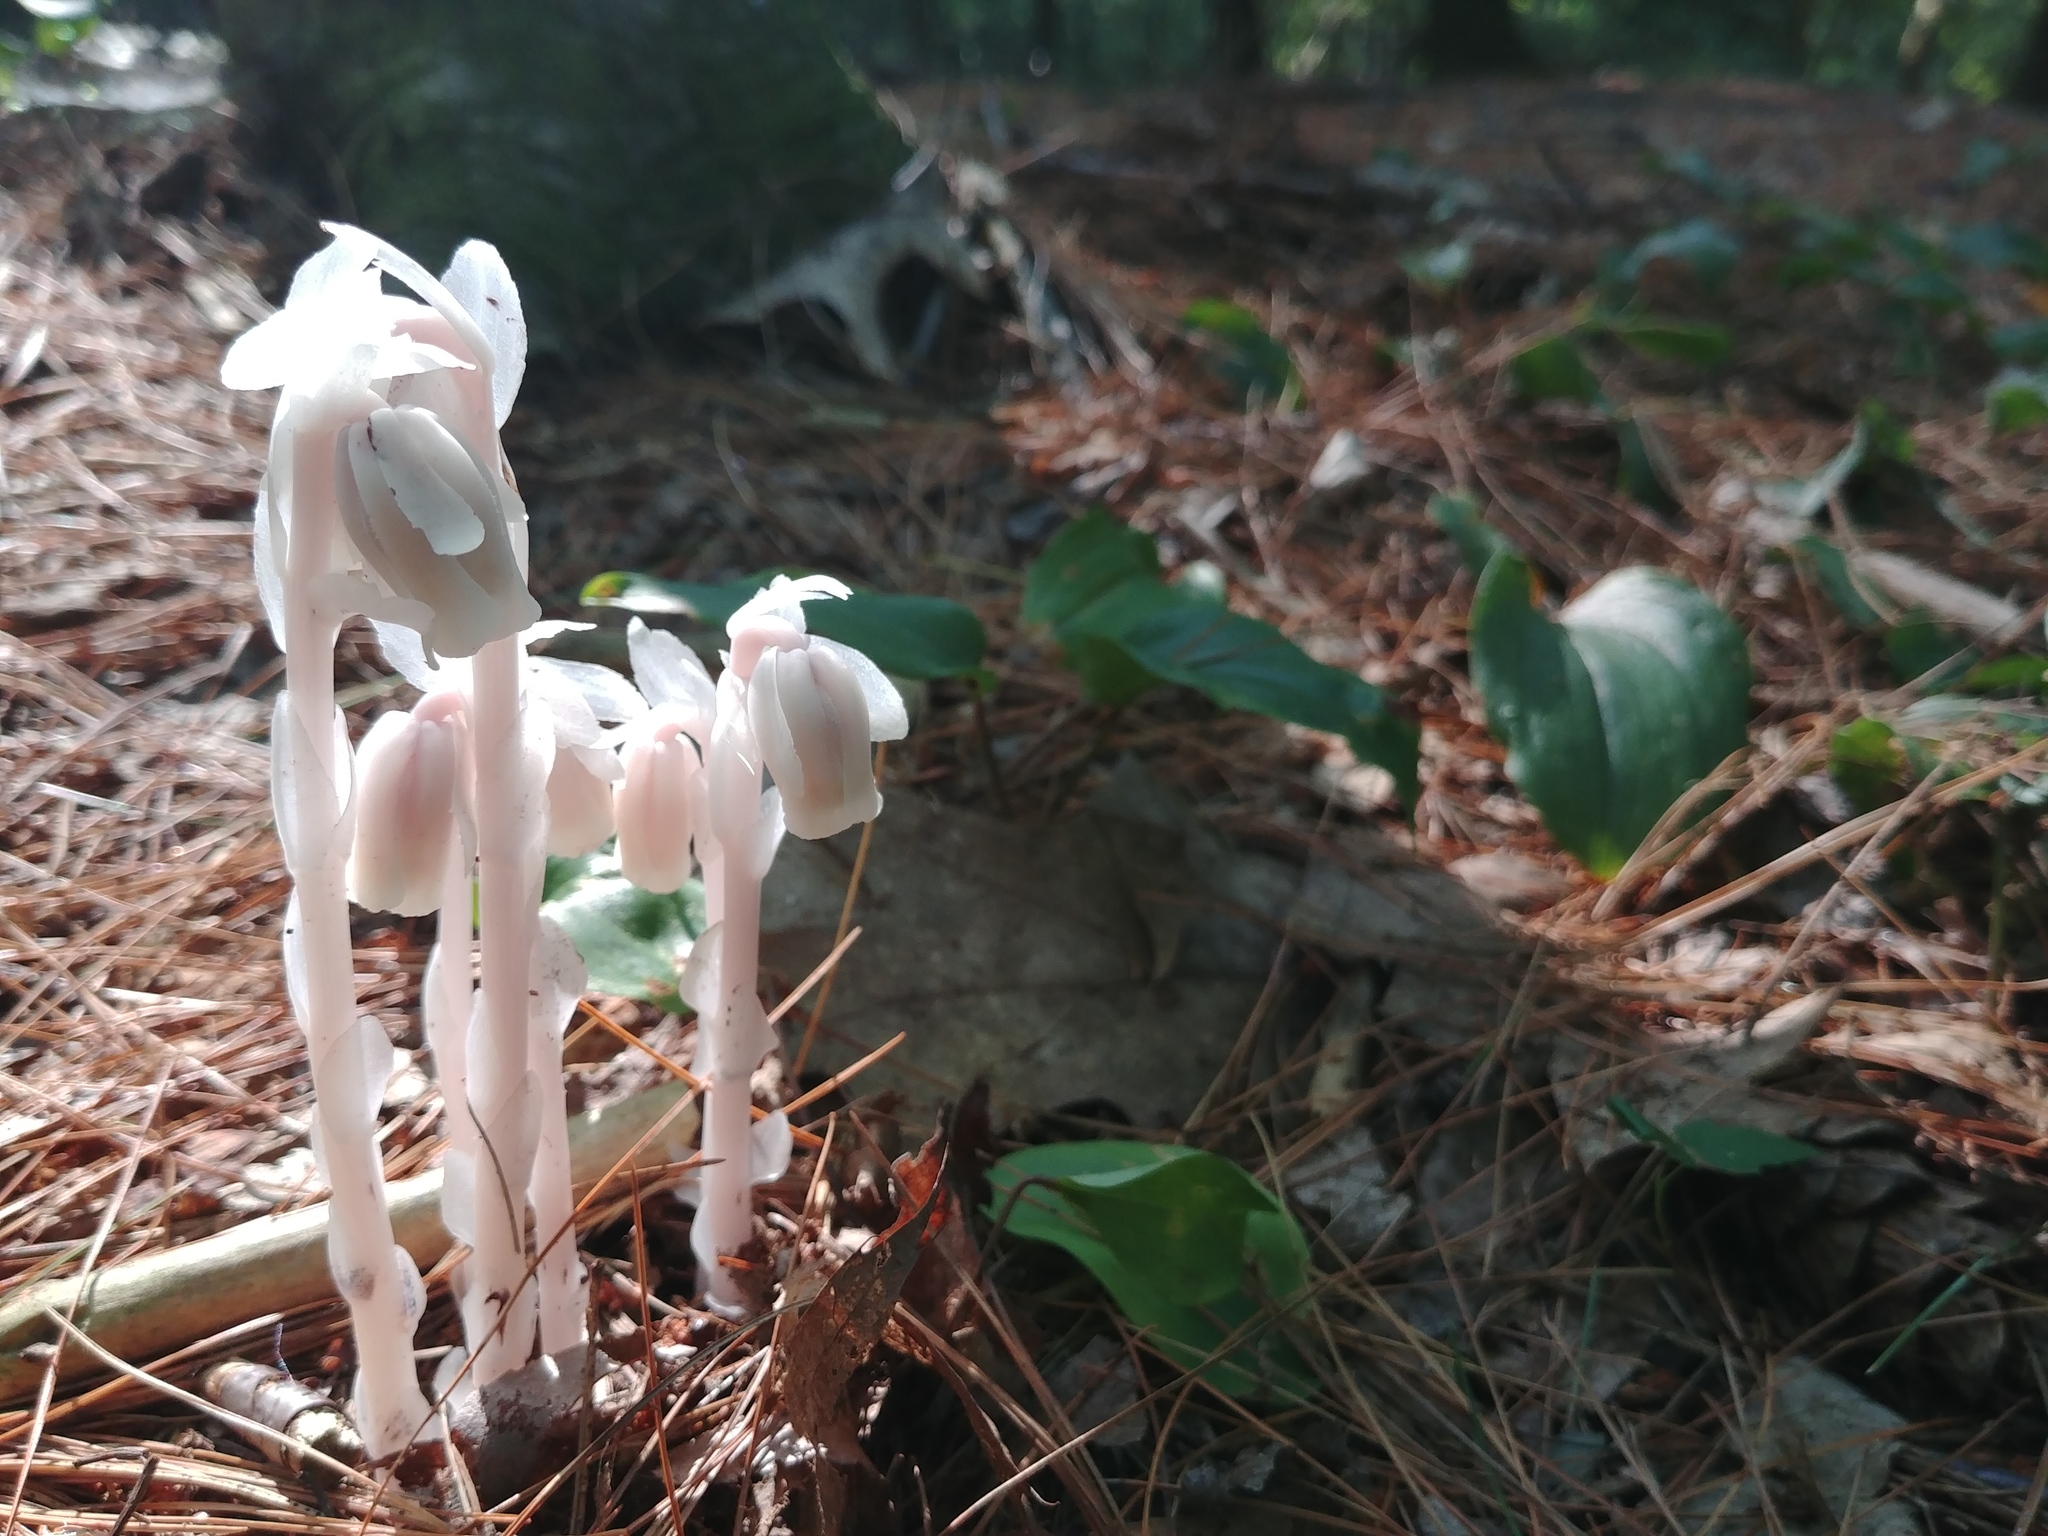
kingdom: Plantae
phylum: Tracheophyta
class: Magnoliopsida
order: Ericales
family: Ericaceae
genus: Monotropa
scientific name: Monotropa uniflora
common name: Convulsion root
